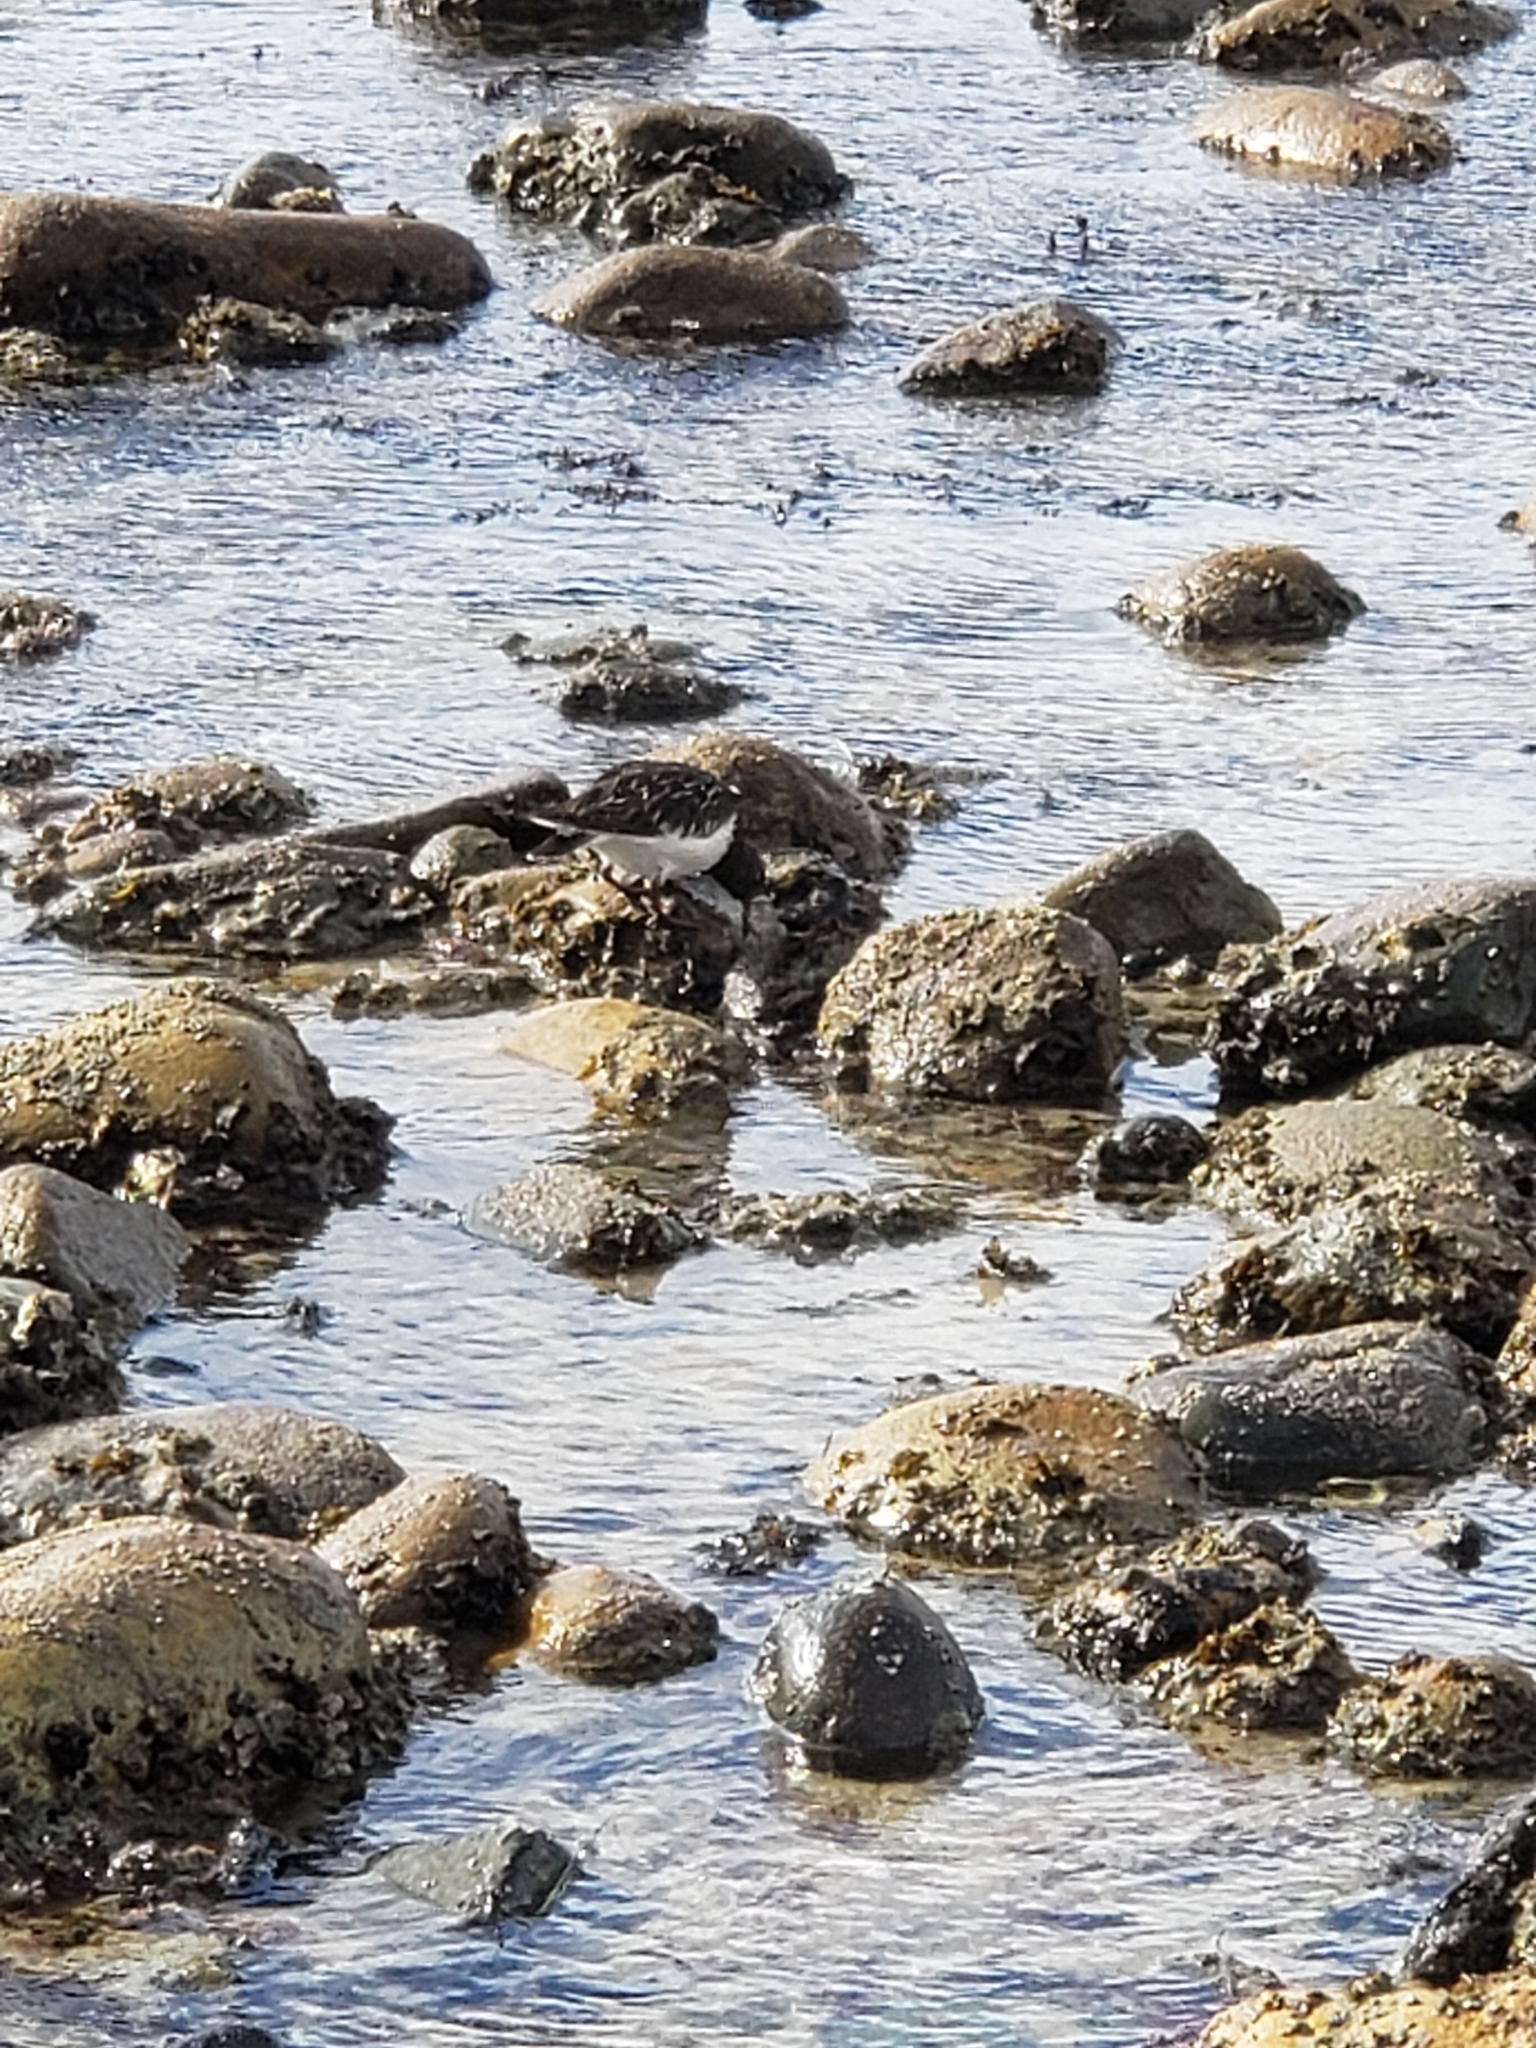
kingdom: Animalia
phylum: Chordata
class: Aves
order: Charadriiformes
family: Scolopacidae
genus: Arenaria
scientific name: Arenaria melanocephala
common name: Black turnstone
